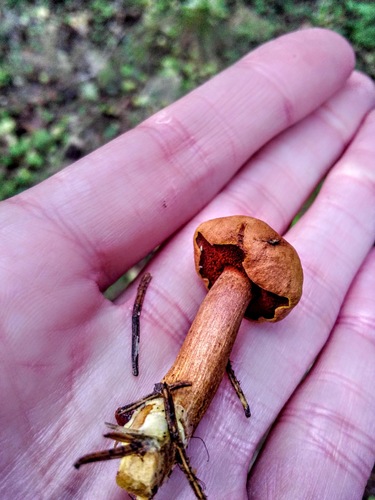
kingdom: Fungi
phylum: Basidiomycota
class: Agaricomycetes
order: Boletales
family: Boletaceae
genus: Chalciporus
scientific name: Chalciporus piperatus
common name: Peppery bolete
